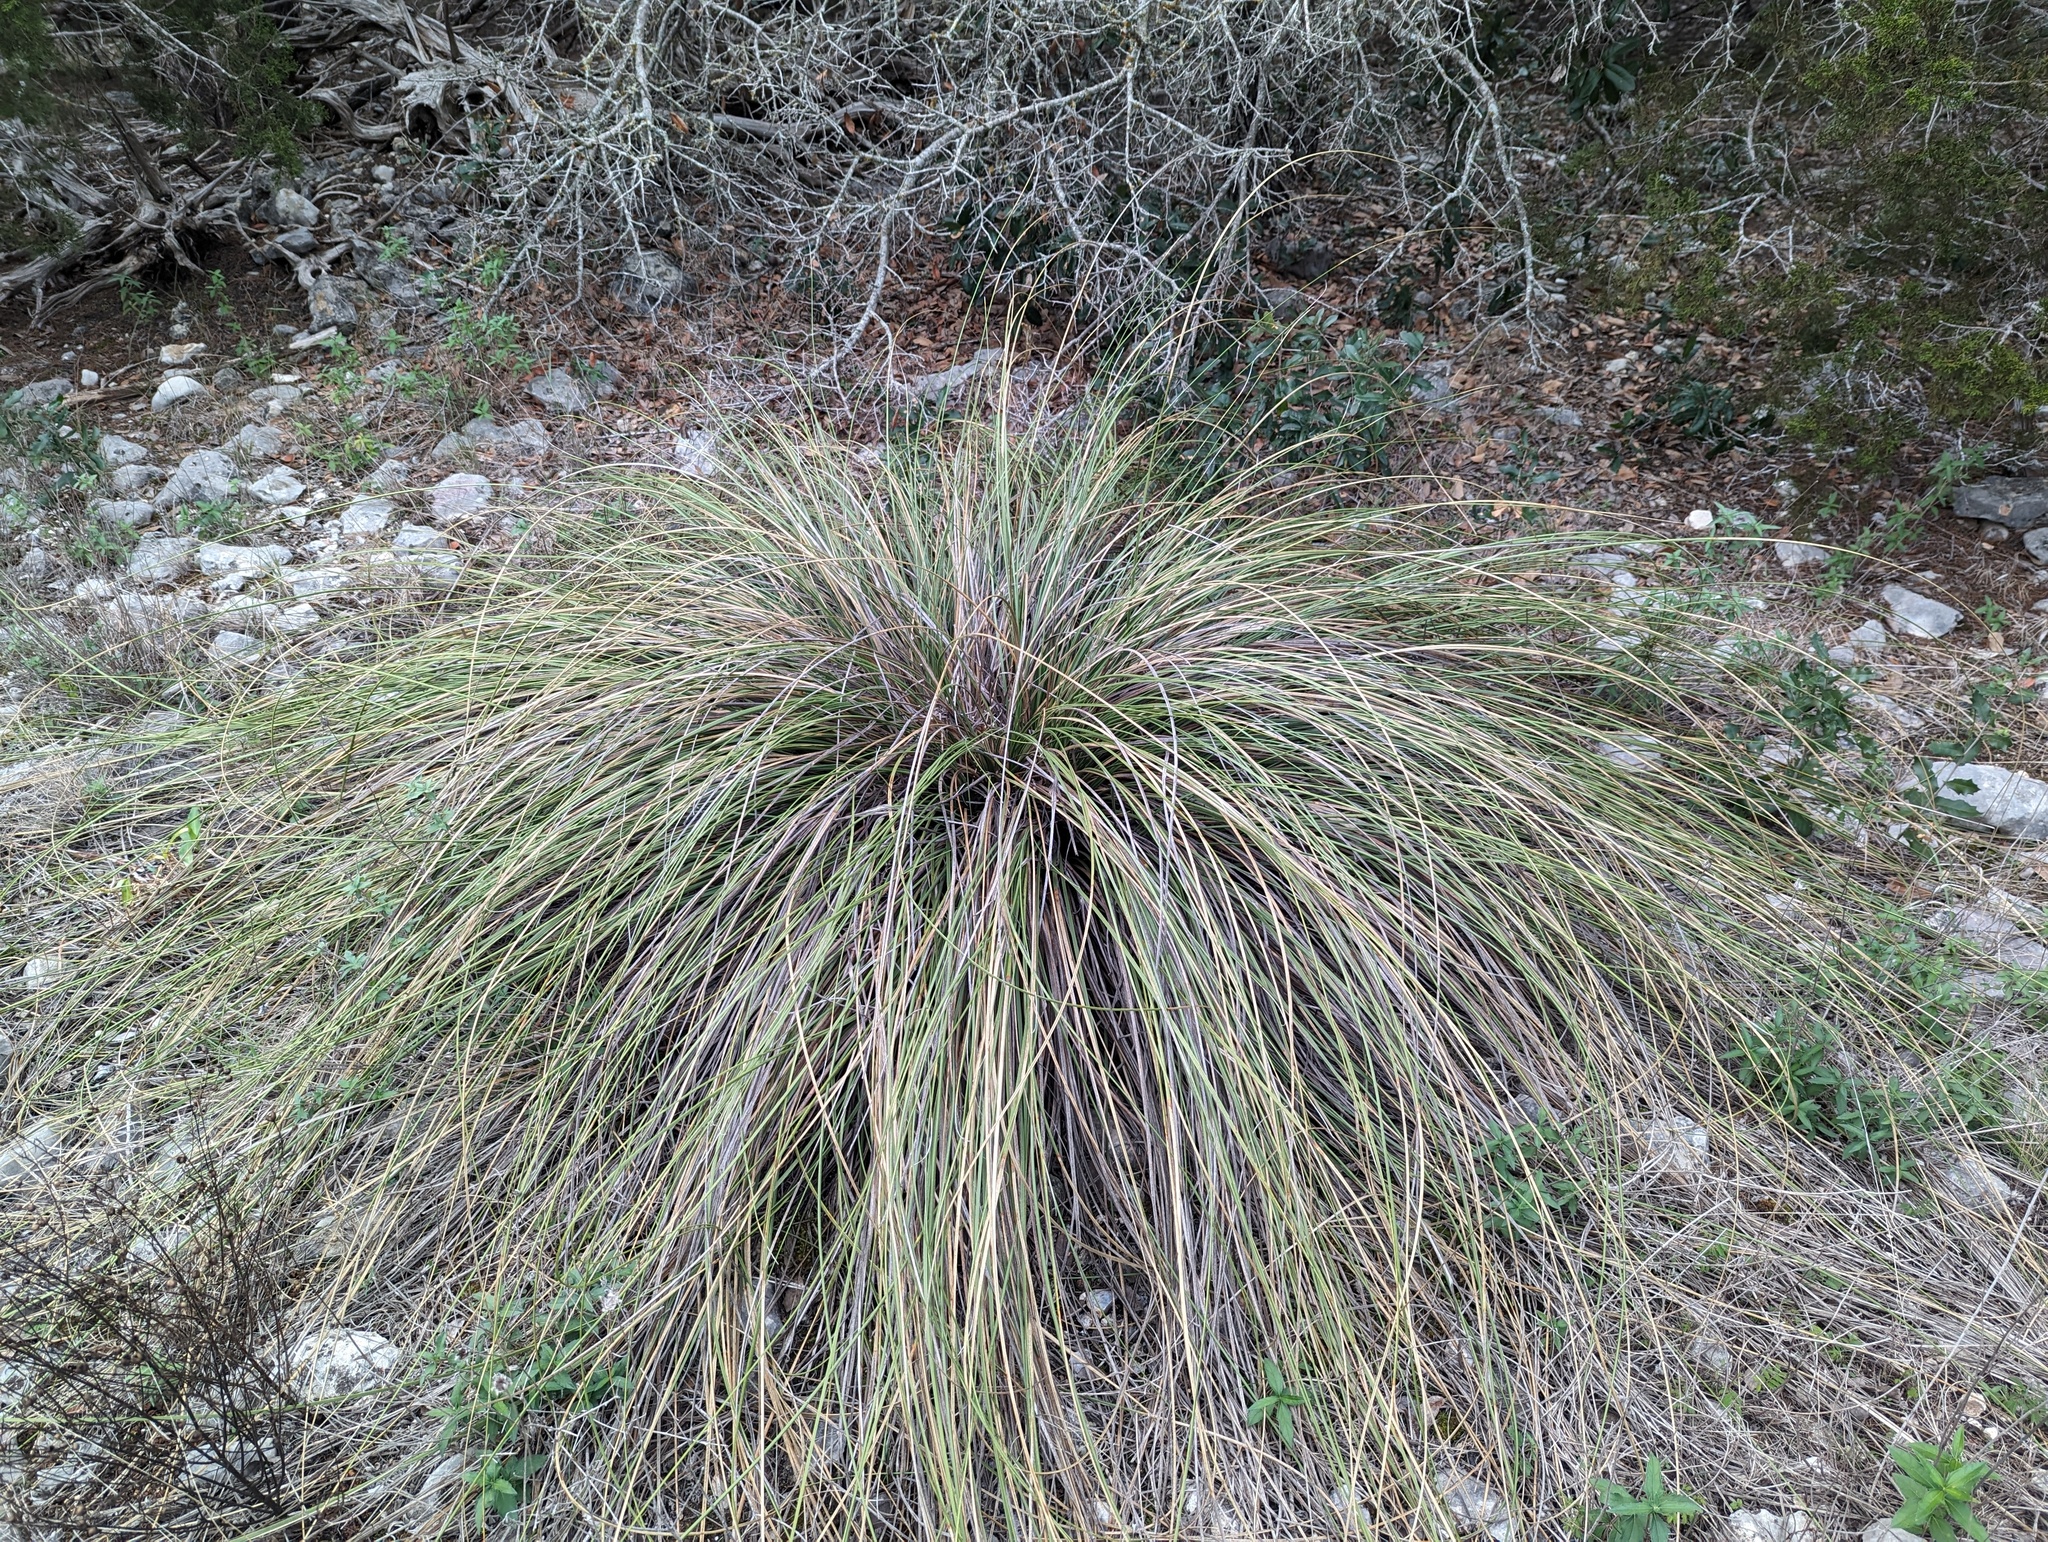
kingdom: Plantae
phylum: Tracheophyta
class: Liliopsida
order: Asparagales
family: Asparagaceae
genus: Nolina
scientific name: Nolina texana
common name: Texas sacahuiste
